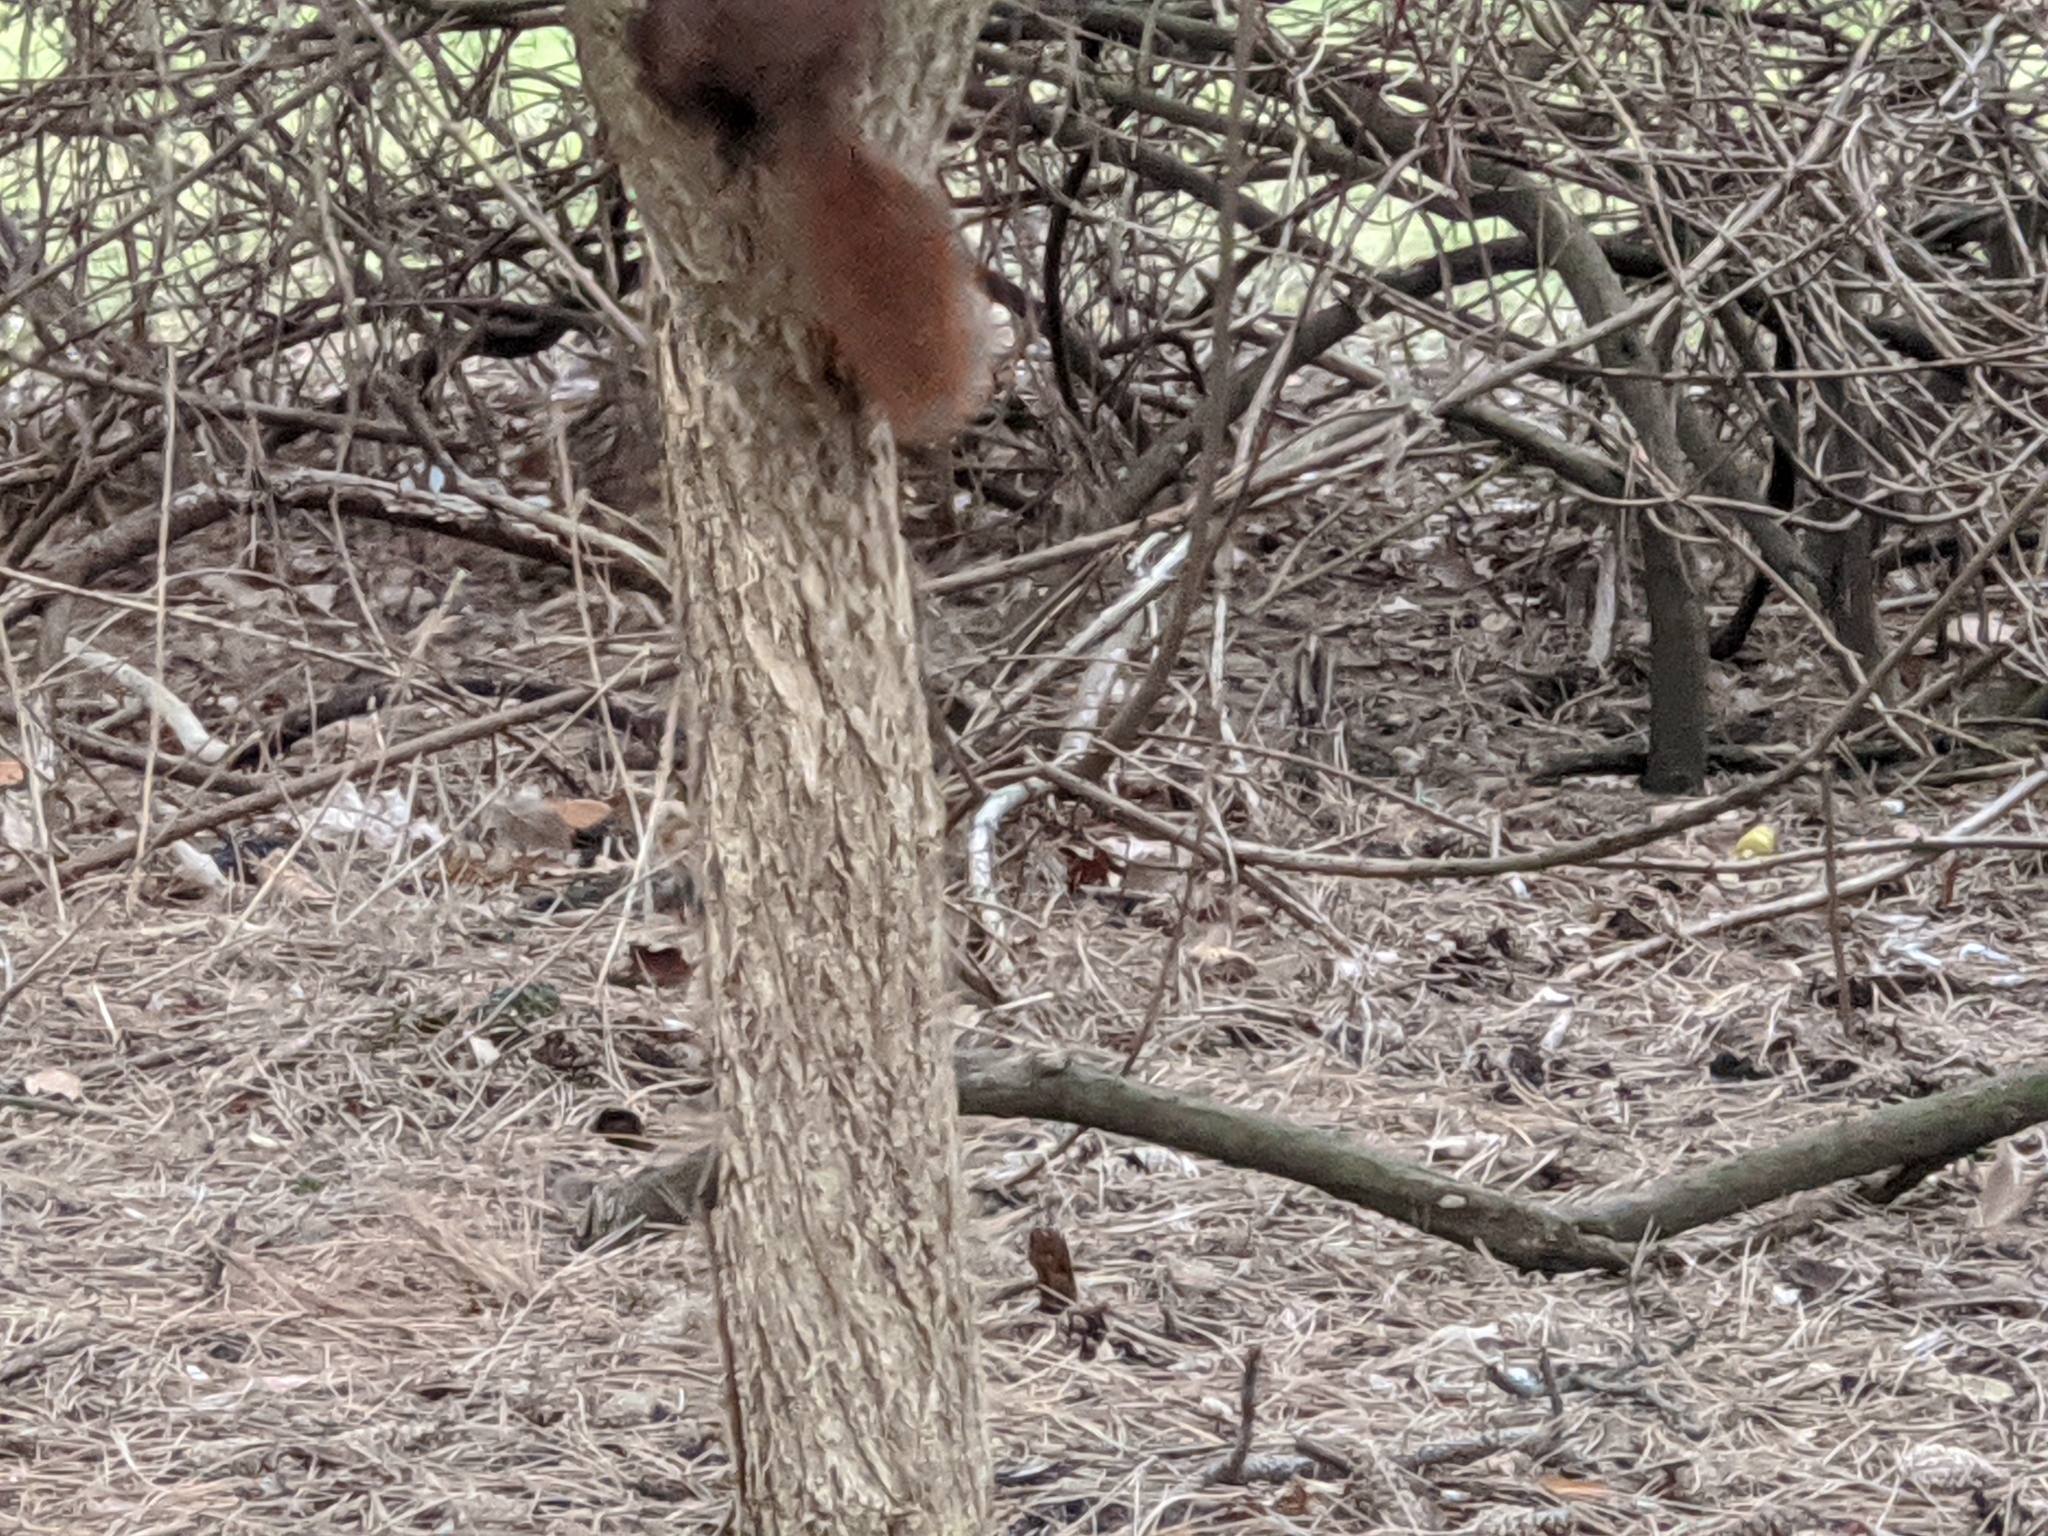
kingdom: Animalia
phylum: Chordata
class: Mammalia
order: Rodentia
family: Sciuridae
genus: Sciurus
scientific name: Sciurus vulgaris
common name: Eurasian red squirrel
